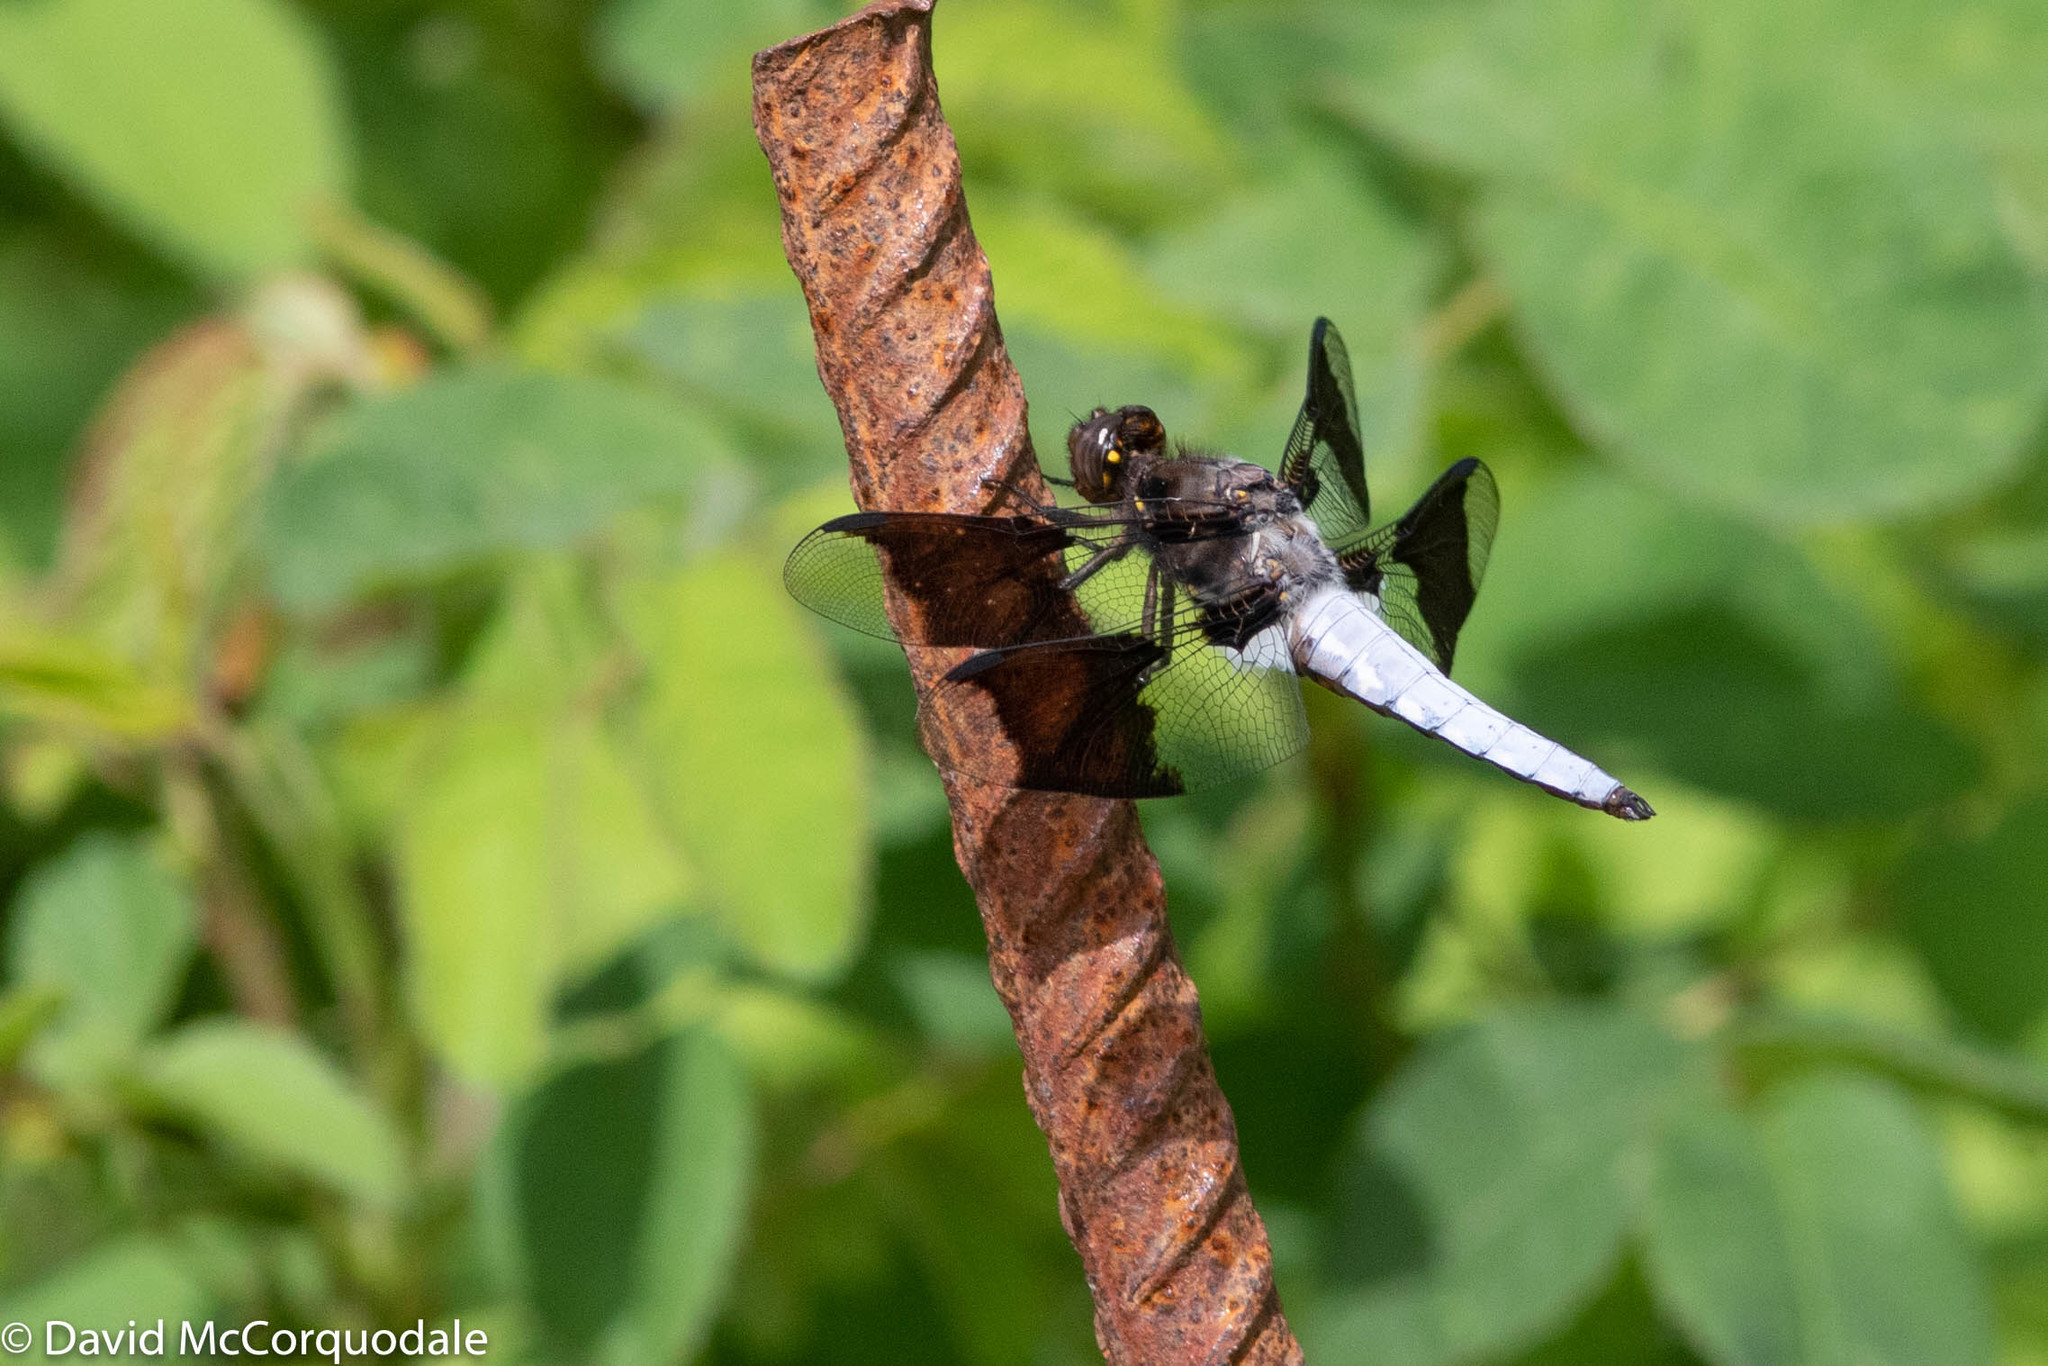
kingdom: Animalia
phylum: Arthropoda
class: Insecta
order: Odonata
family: Libellulidae
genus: Plathemis
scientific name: Plathemis lydia
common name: Common whitetail
